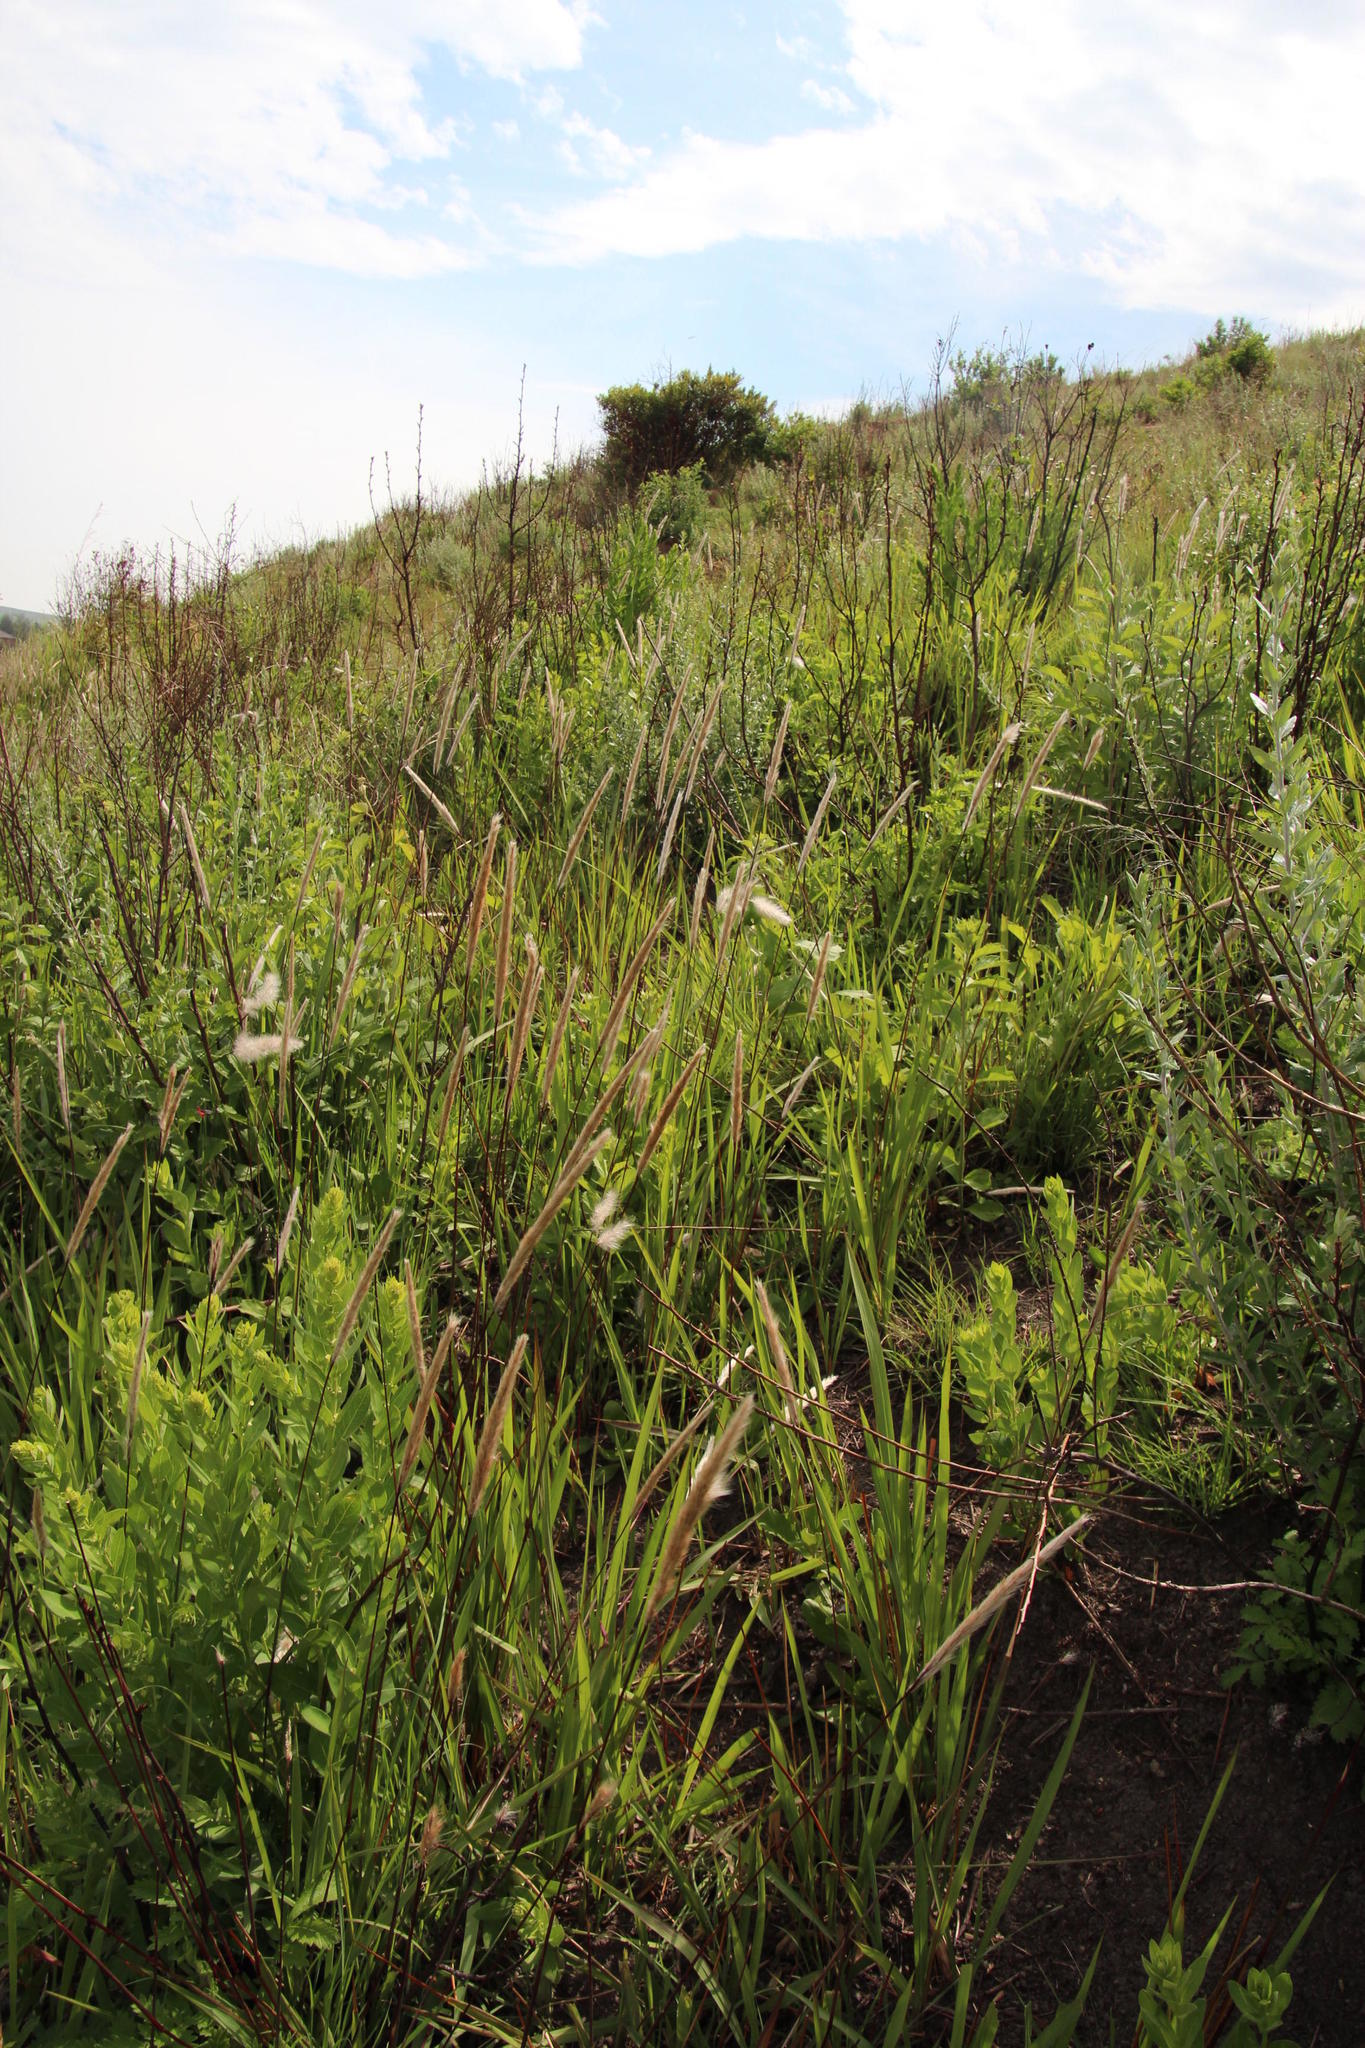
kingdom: Plantae
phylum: Tracheophyta
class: Liliopsida
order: Poales
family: Poaceae
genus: Imperata
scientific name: Imperata cylindrica
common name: Cogongrass
